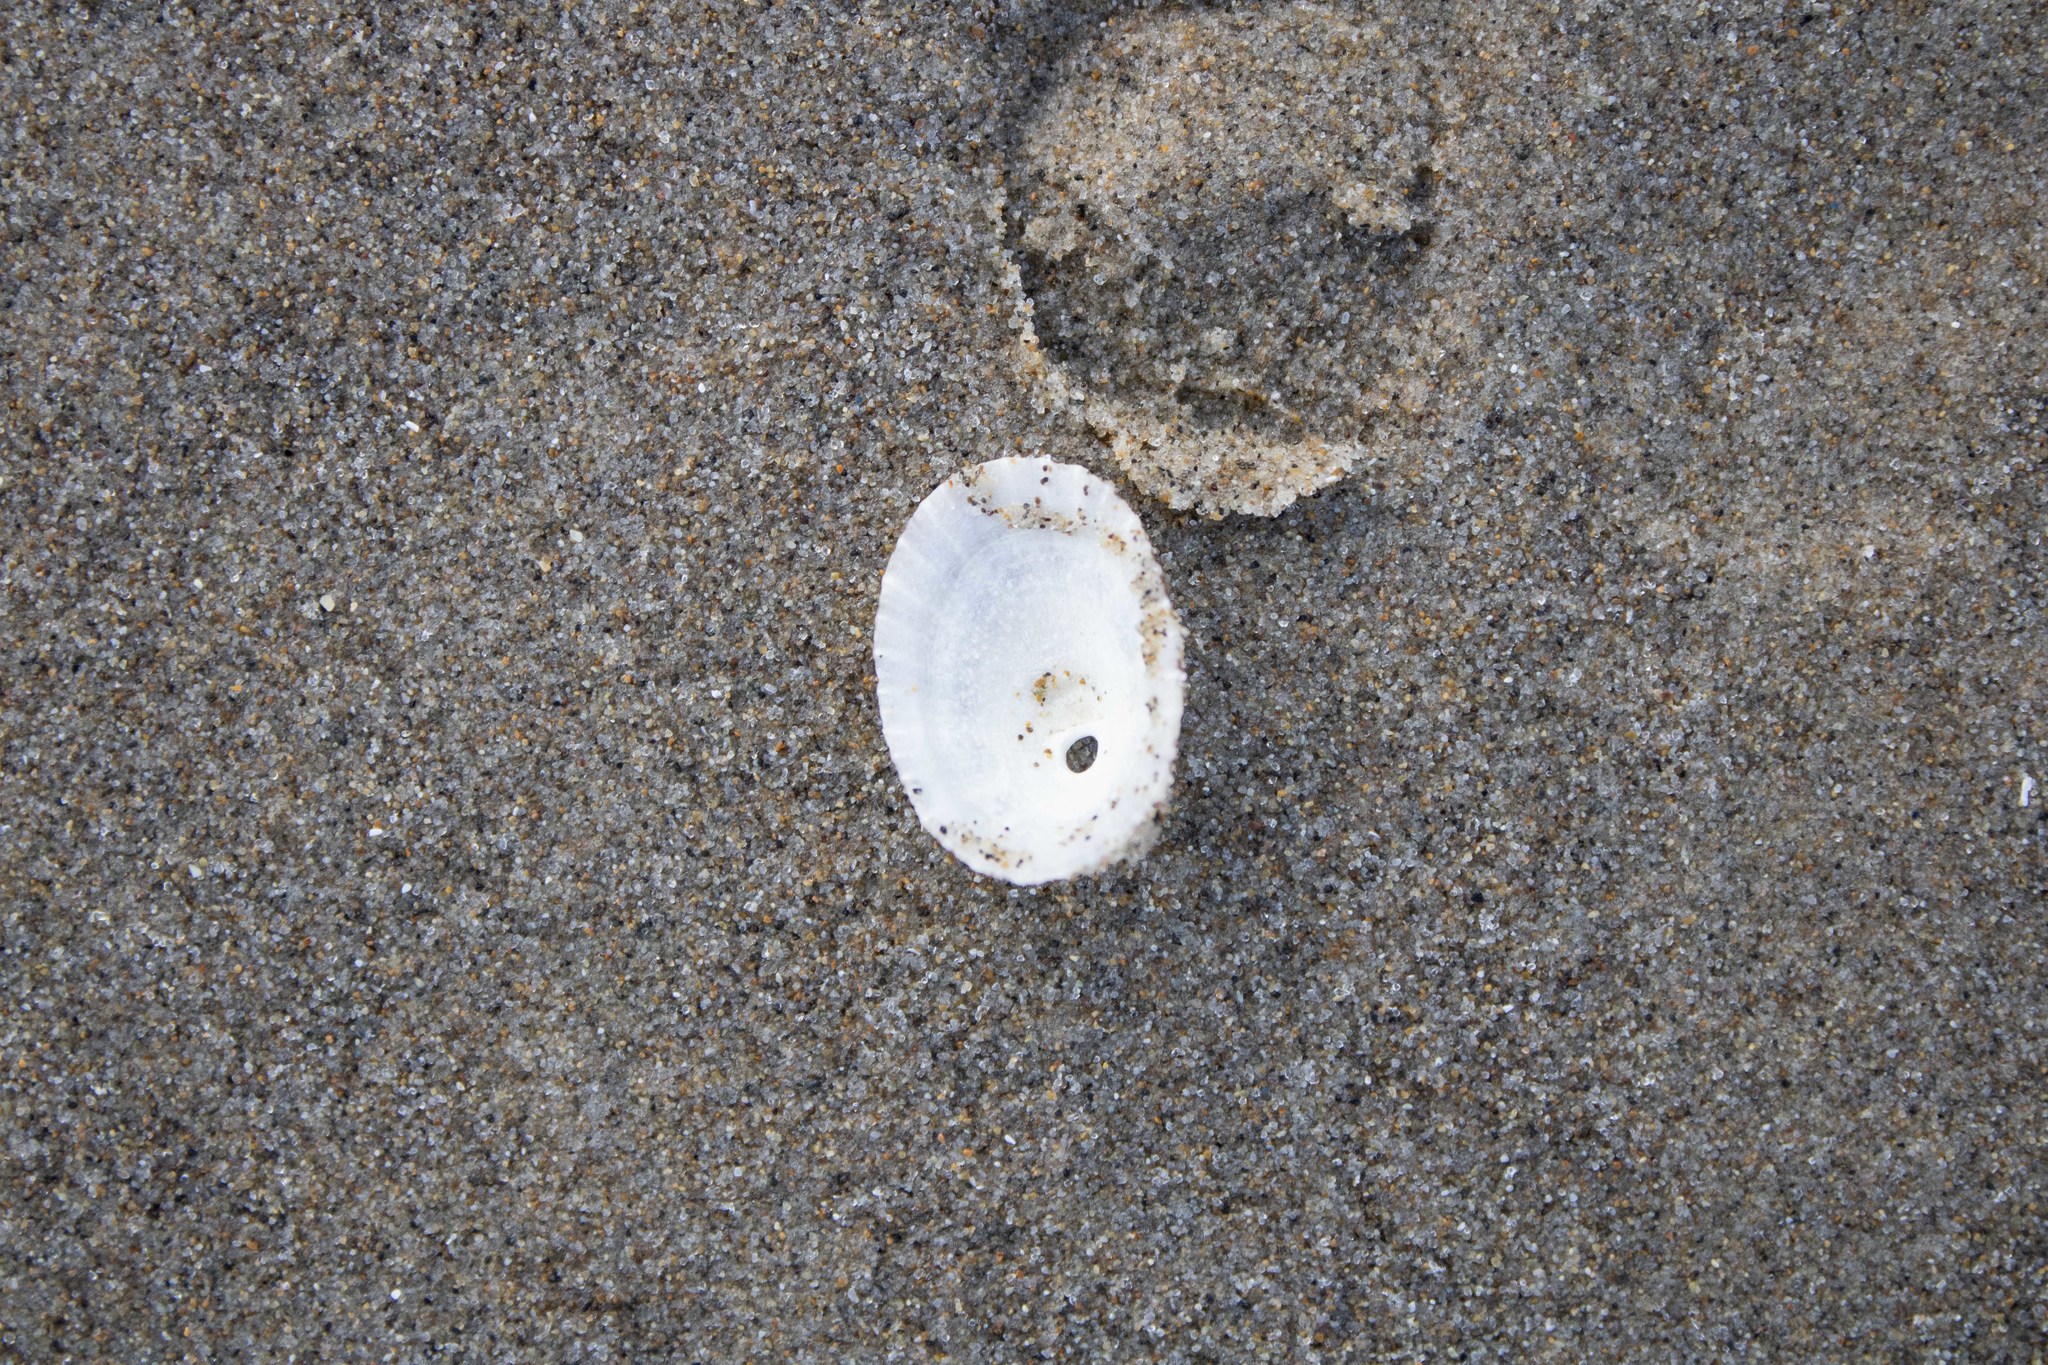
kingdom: Animalia
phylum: Mollusca
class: Gastropoda
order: Lepetellida
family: Fissurellidae
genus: Diodora
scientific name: Diodora aspera
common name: Rough keyhole limpet
